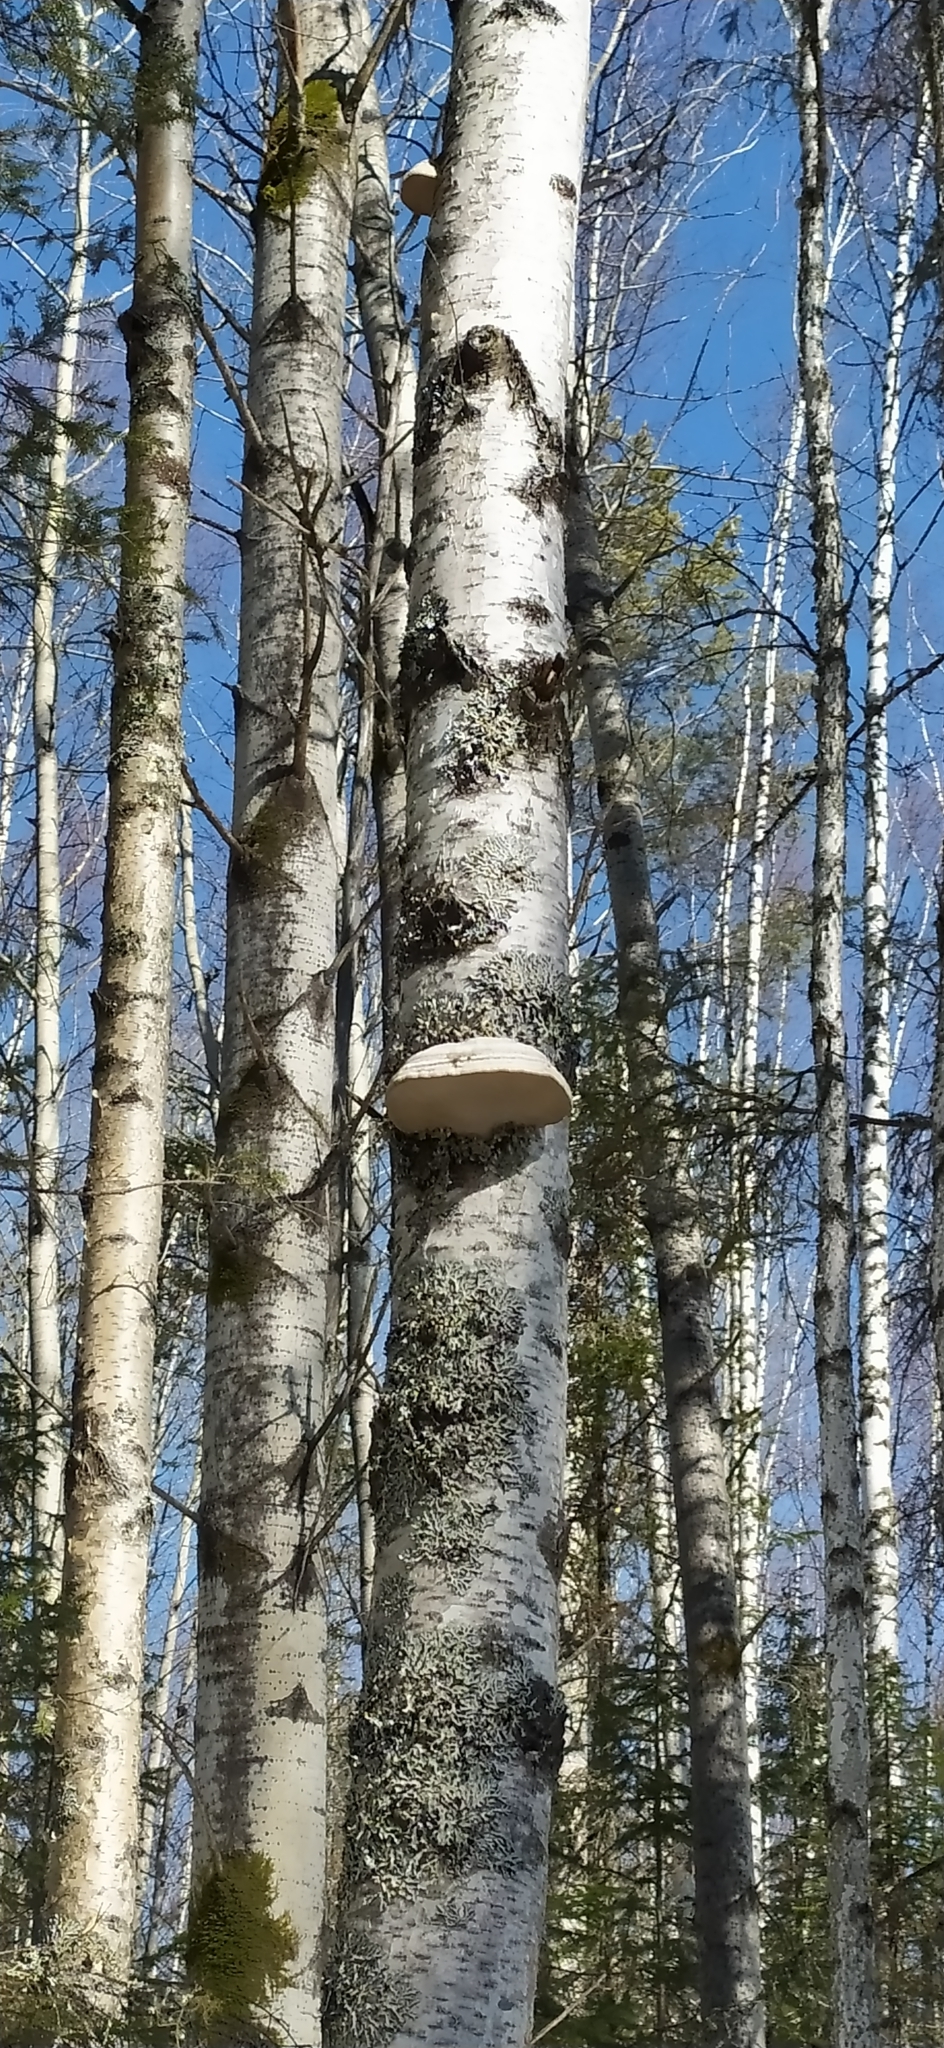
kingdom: Fungi
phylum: Basidiomycota
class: Agaricomycetes
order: Polyporales
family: Polyporaceae
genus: Fomes
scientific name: Fomes fomentarius
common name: Hoof fungus
